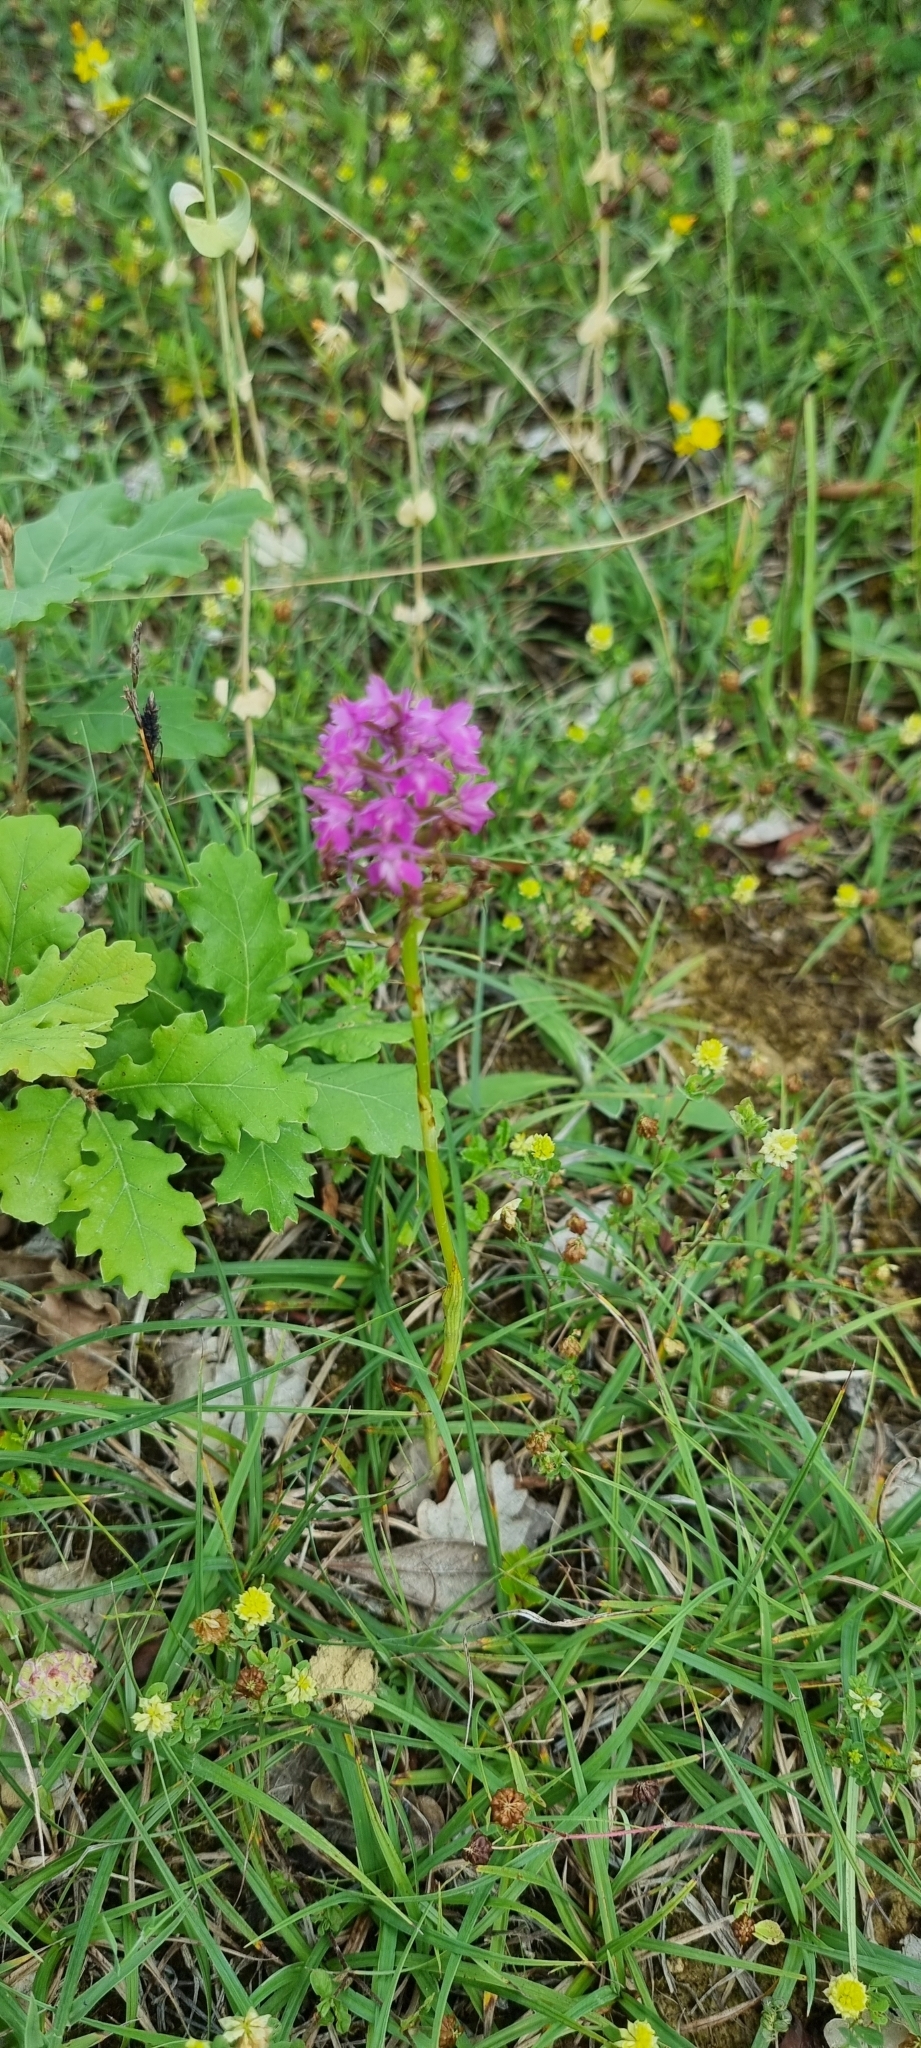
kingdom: Plantae
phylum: Tracheophyta
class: Liliopsida
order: Asparagales
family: Orchidaceae
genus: Anacamptis
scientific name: Anacamptis pyramidalis
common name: Pyramidal orchid
